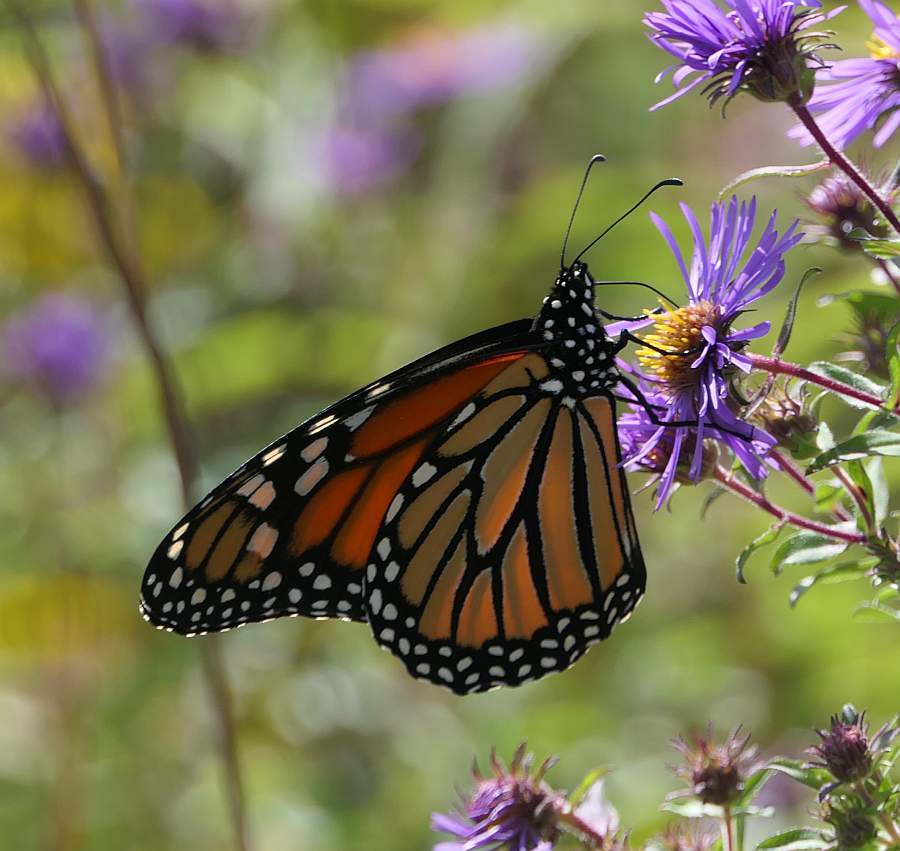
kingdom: Animalia
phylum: Arthropoda
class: Insecta
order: Lepidoptera
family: Nymphalidae
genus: Danaus
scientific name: Danaus plexippus
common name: Monarch
